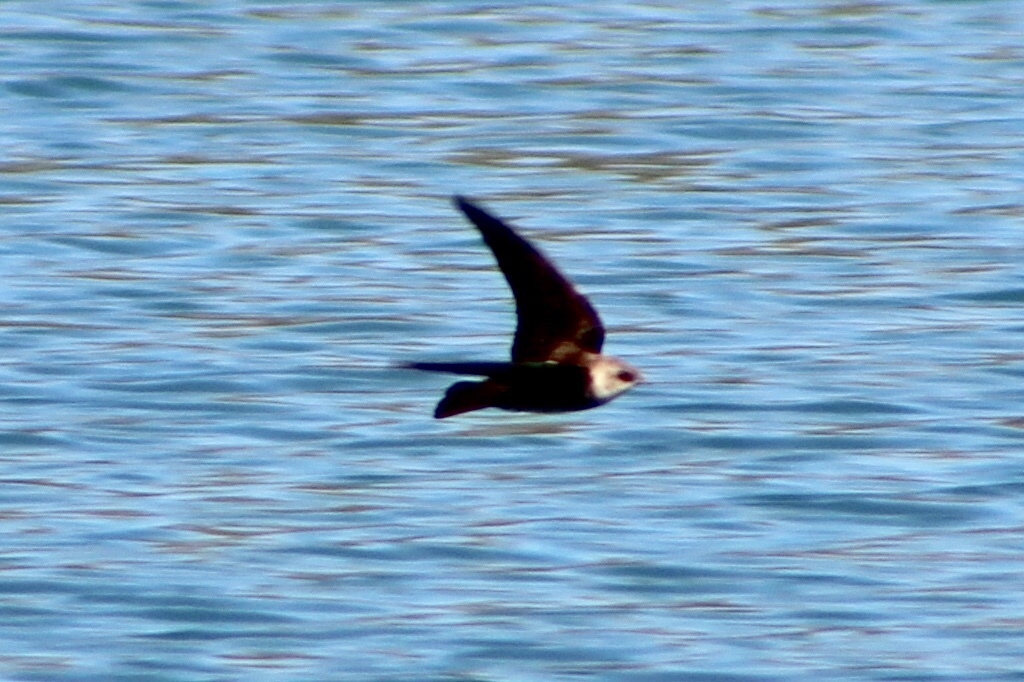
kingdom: Animalia
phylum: Chordata
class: Aves
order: Passeriformes
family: Hirundinidae
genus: Stelgidopteryx
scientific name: Stelgidopteryx serripennis
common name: Northern rough-winged swallow
